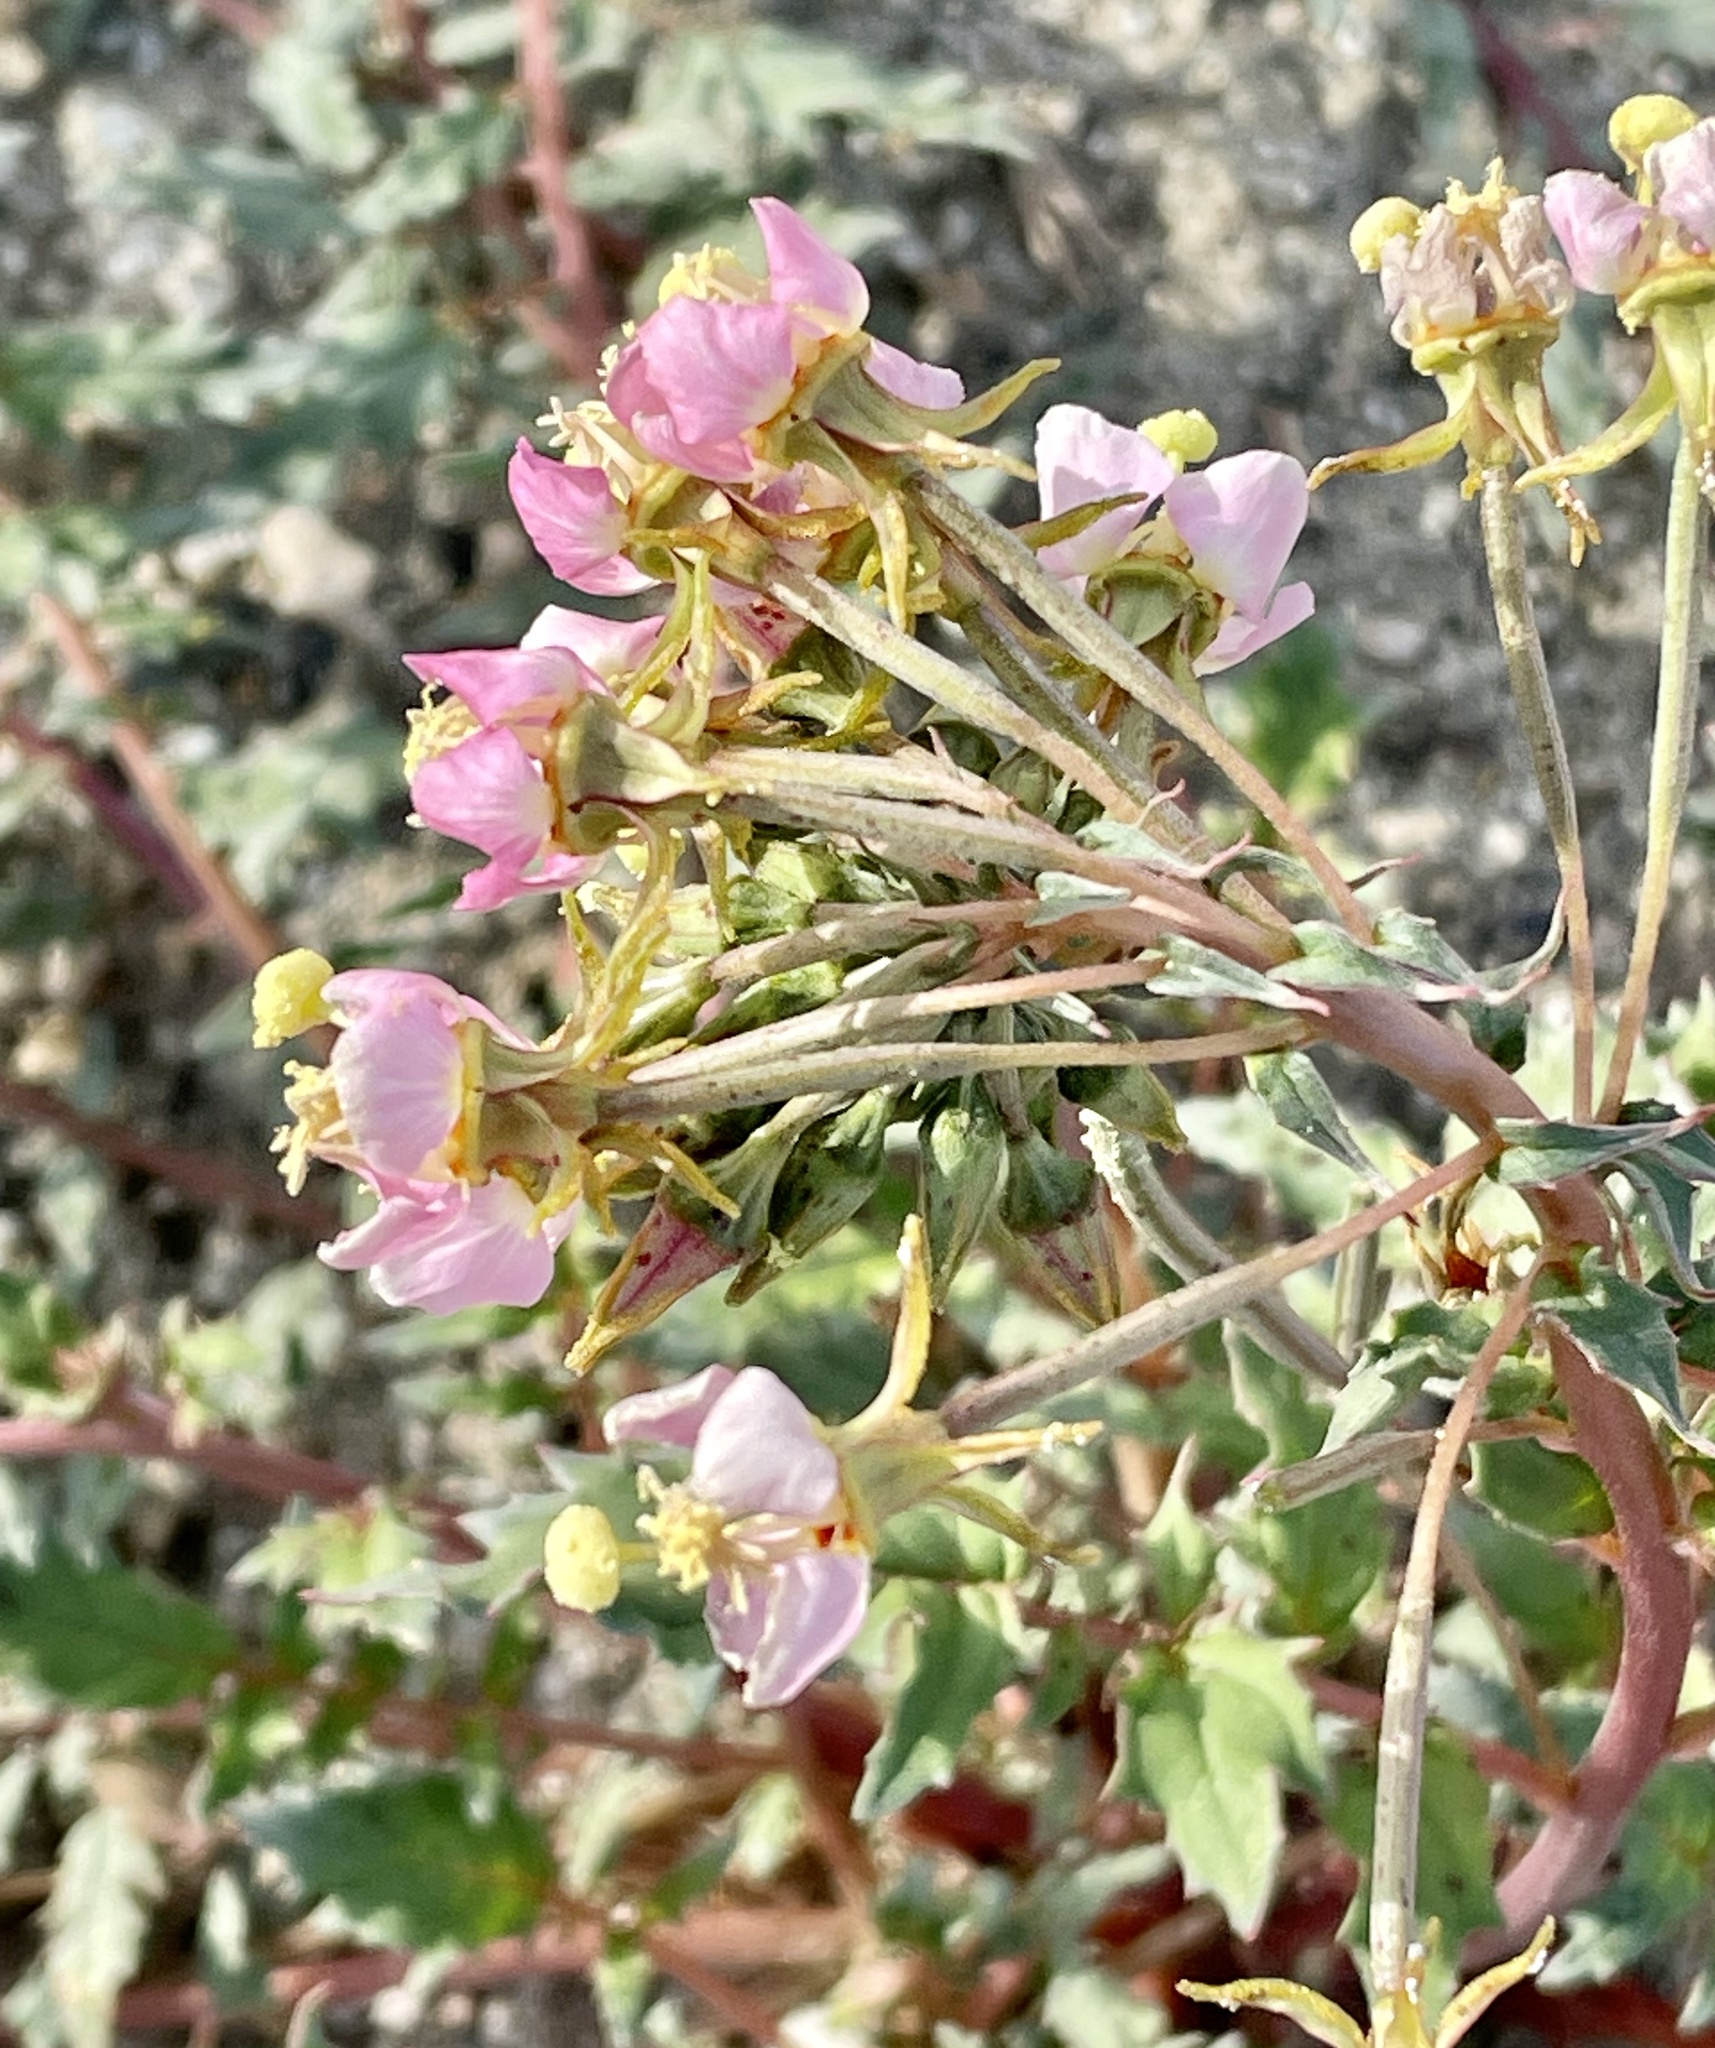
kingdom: Plantae
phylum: Tracheophyta
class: Magnoliopsida
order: Myrtales
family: Onagraceae
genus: Chylismia
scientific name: Chylismia claviformis
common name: Browneyes
